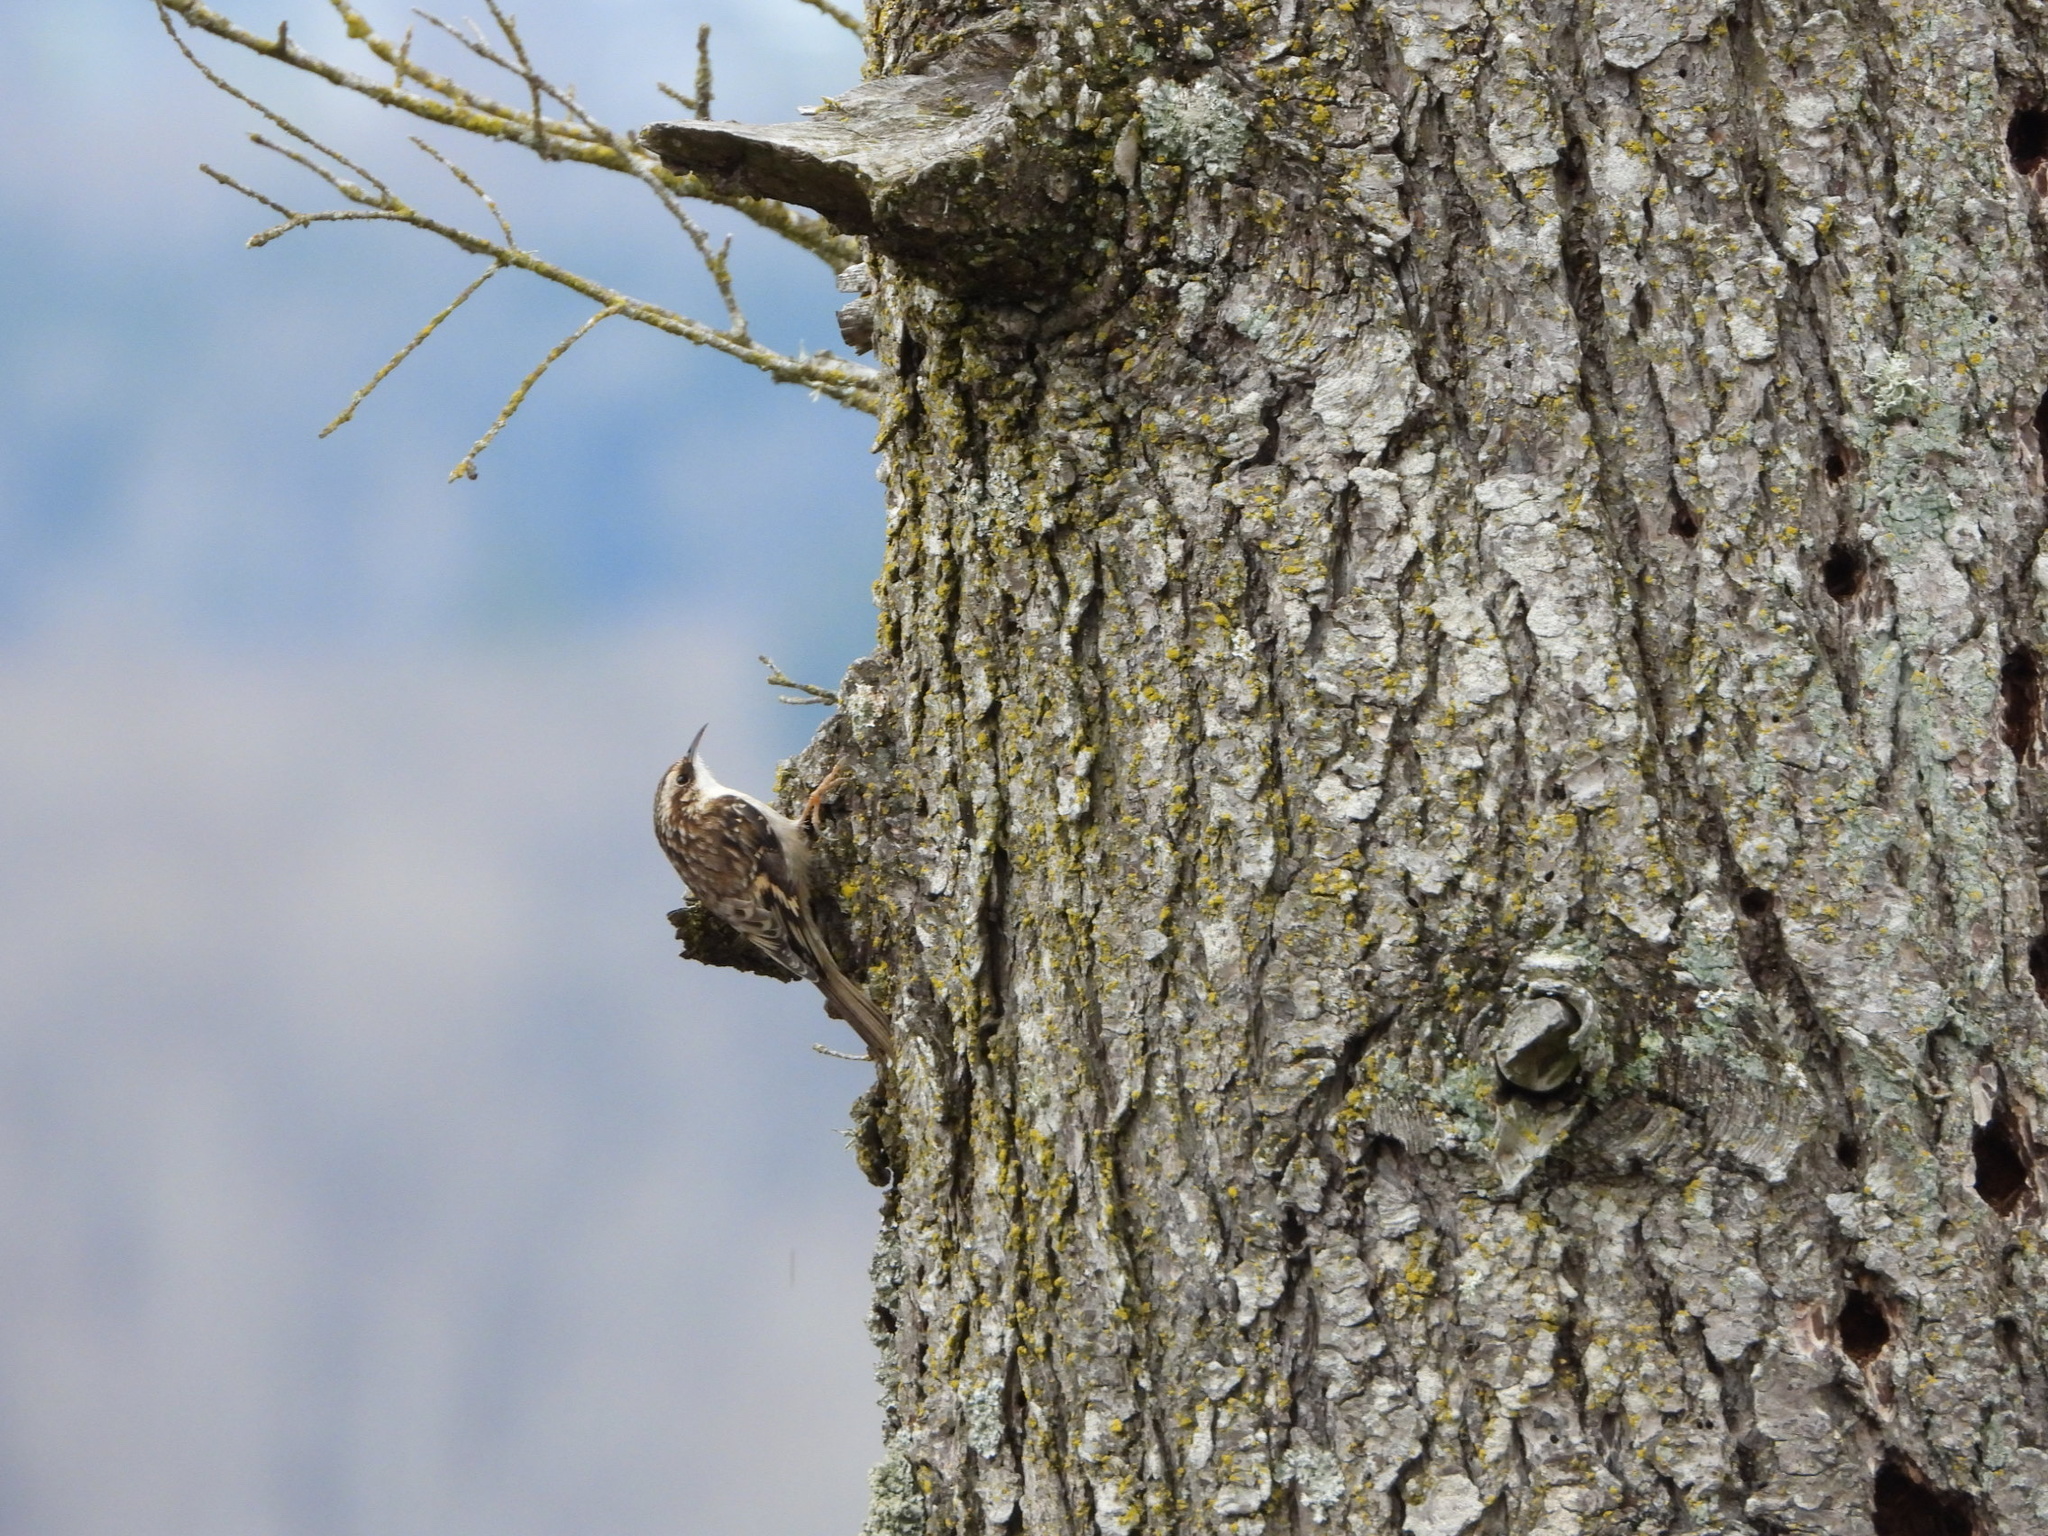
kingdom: Animalia
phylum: Chordata
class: Aves
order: Passeriformes
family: Certhiidae
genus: Certhia
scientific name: Certhia americana
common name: Brown creeper
